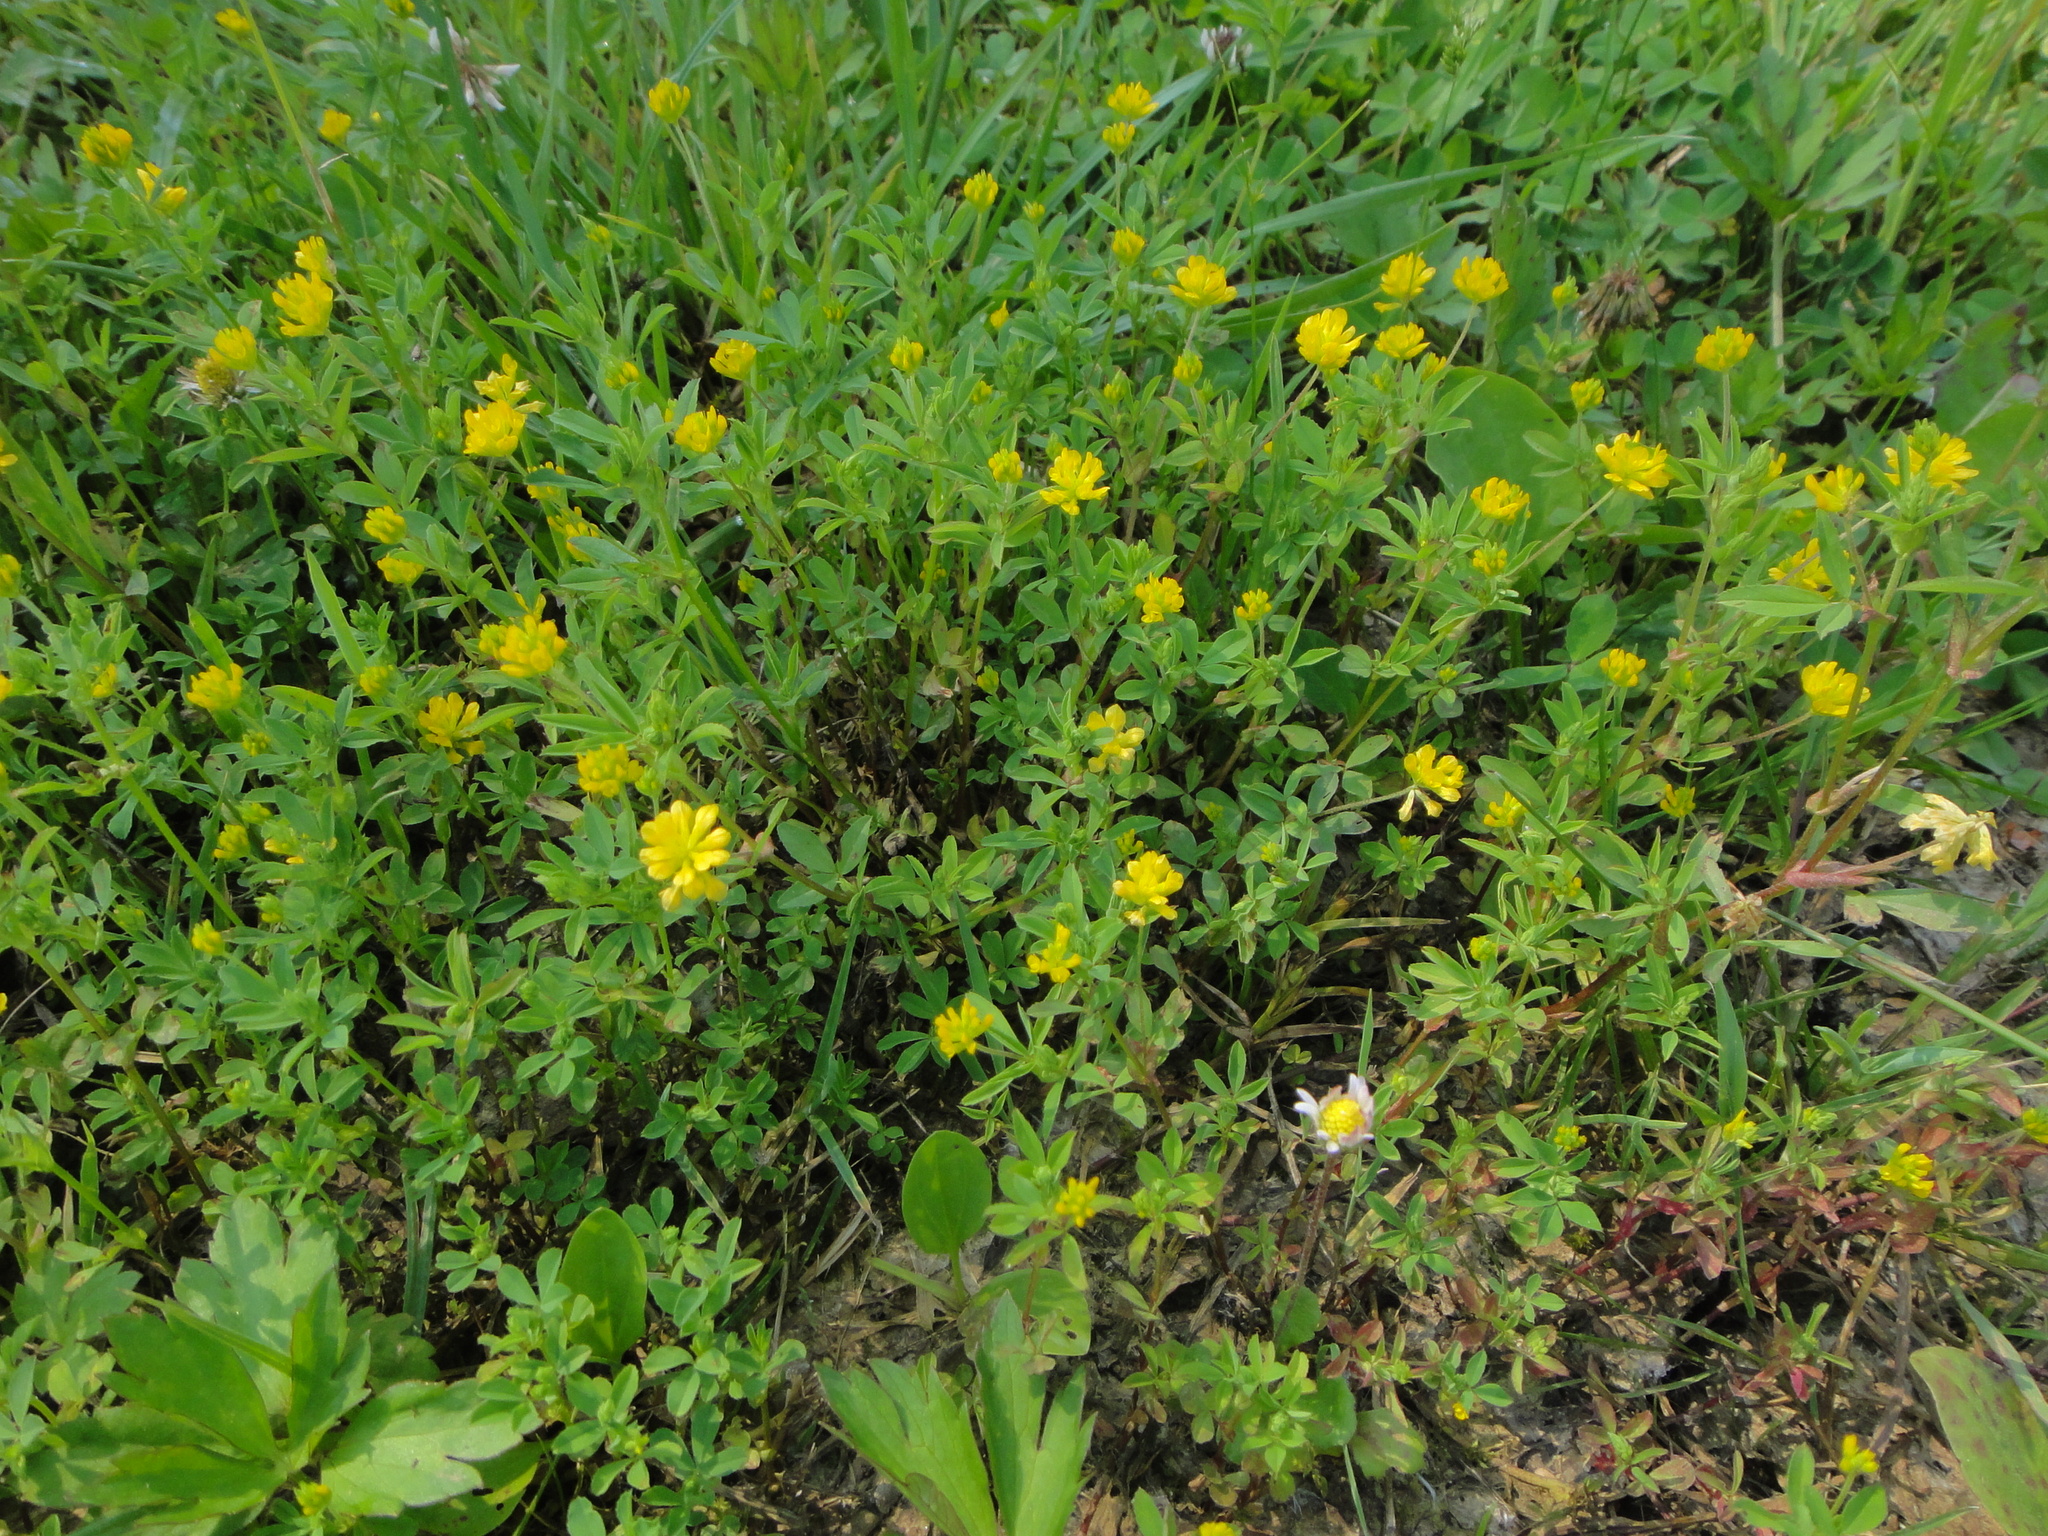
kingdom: Plantae
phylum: Tracheophyta
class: Magnoliopsida
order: Fabales
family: Fabaceae
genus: Trifolium
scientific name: Trifolium patens
